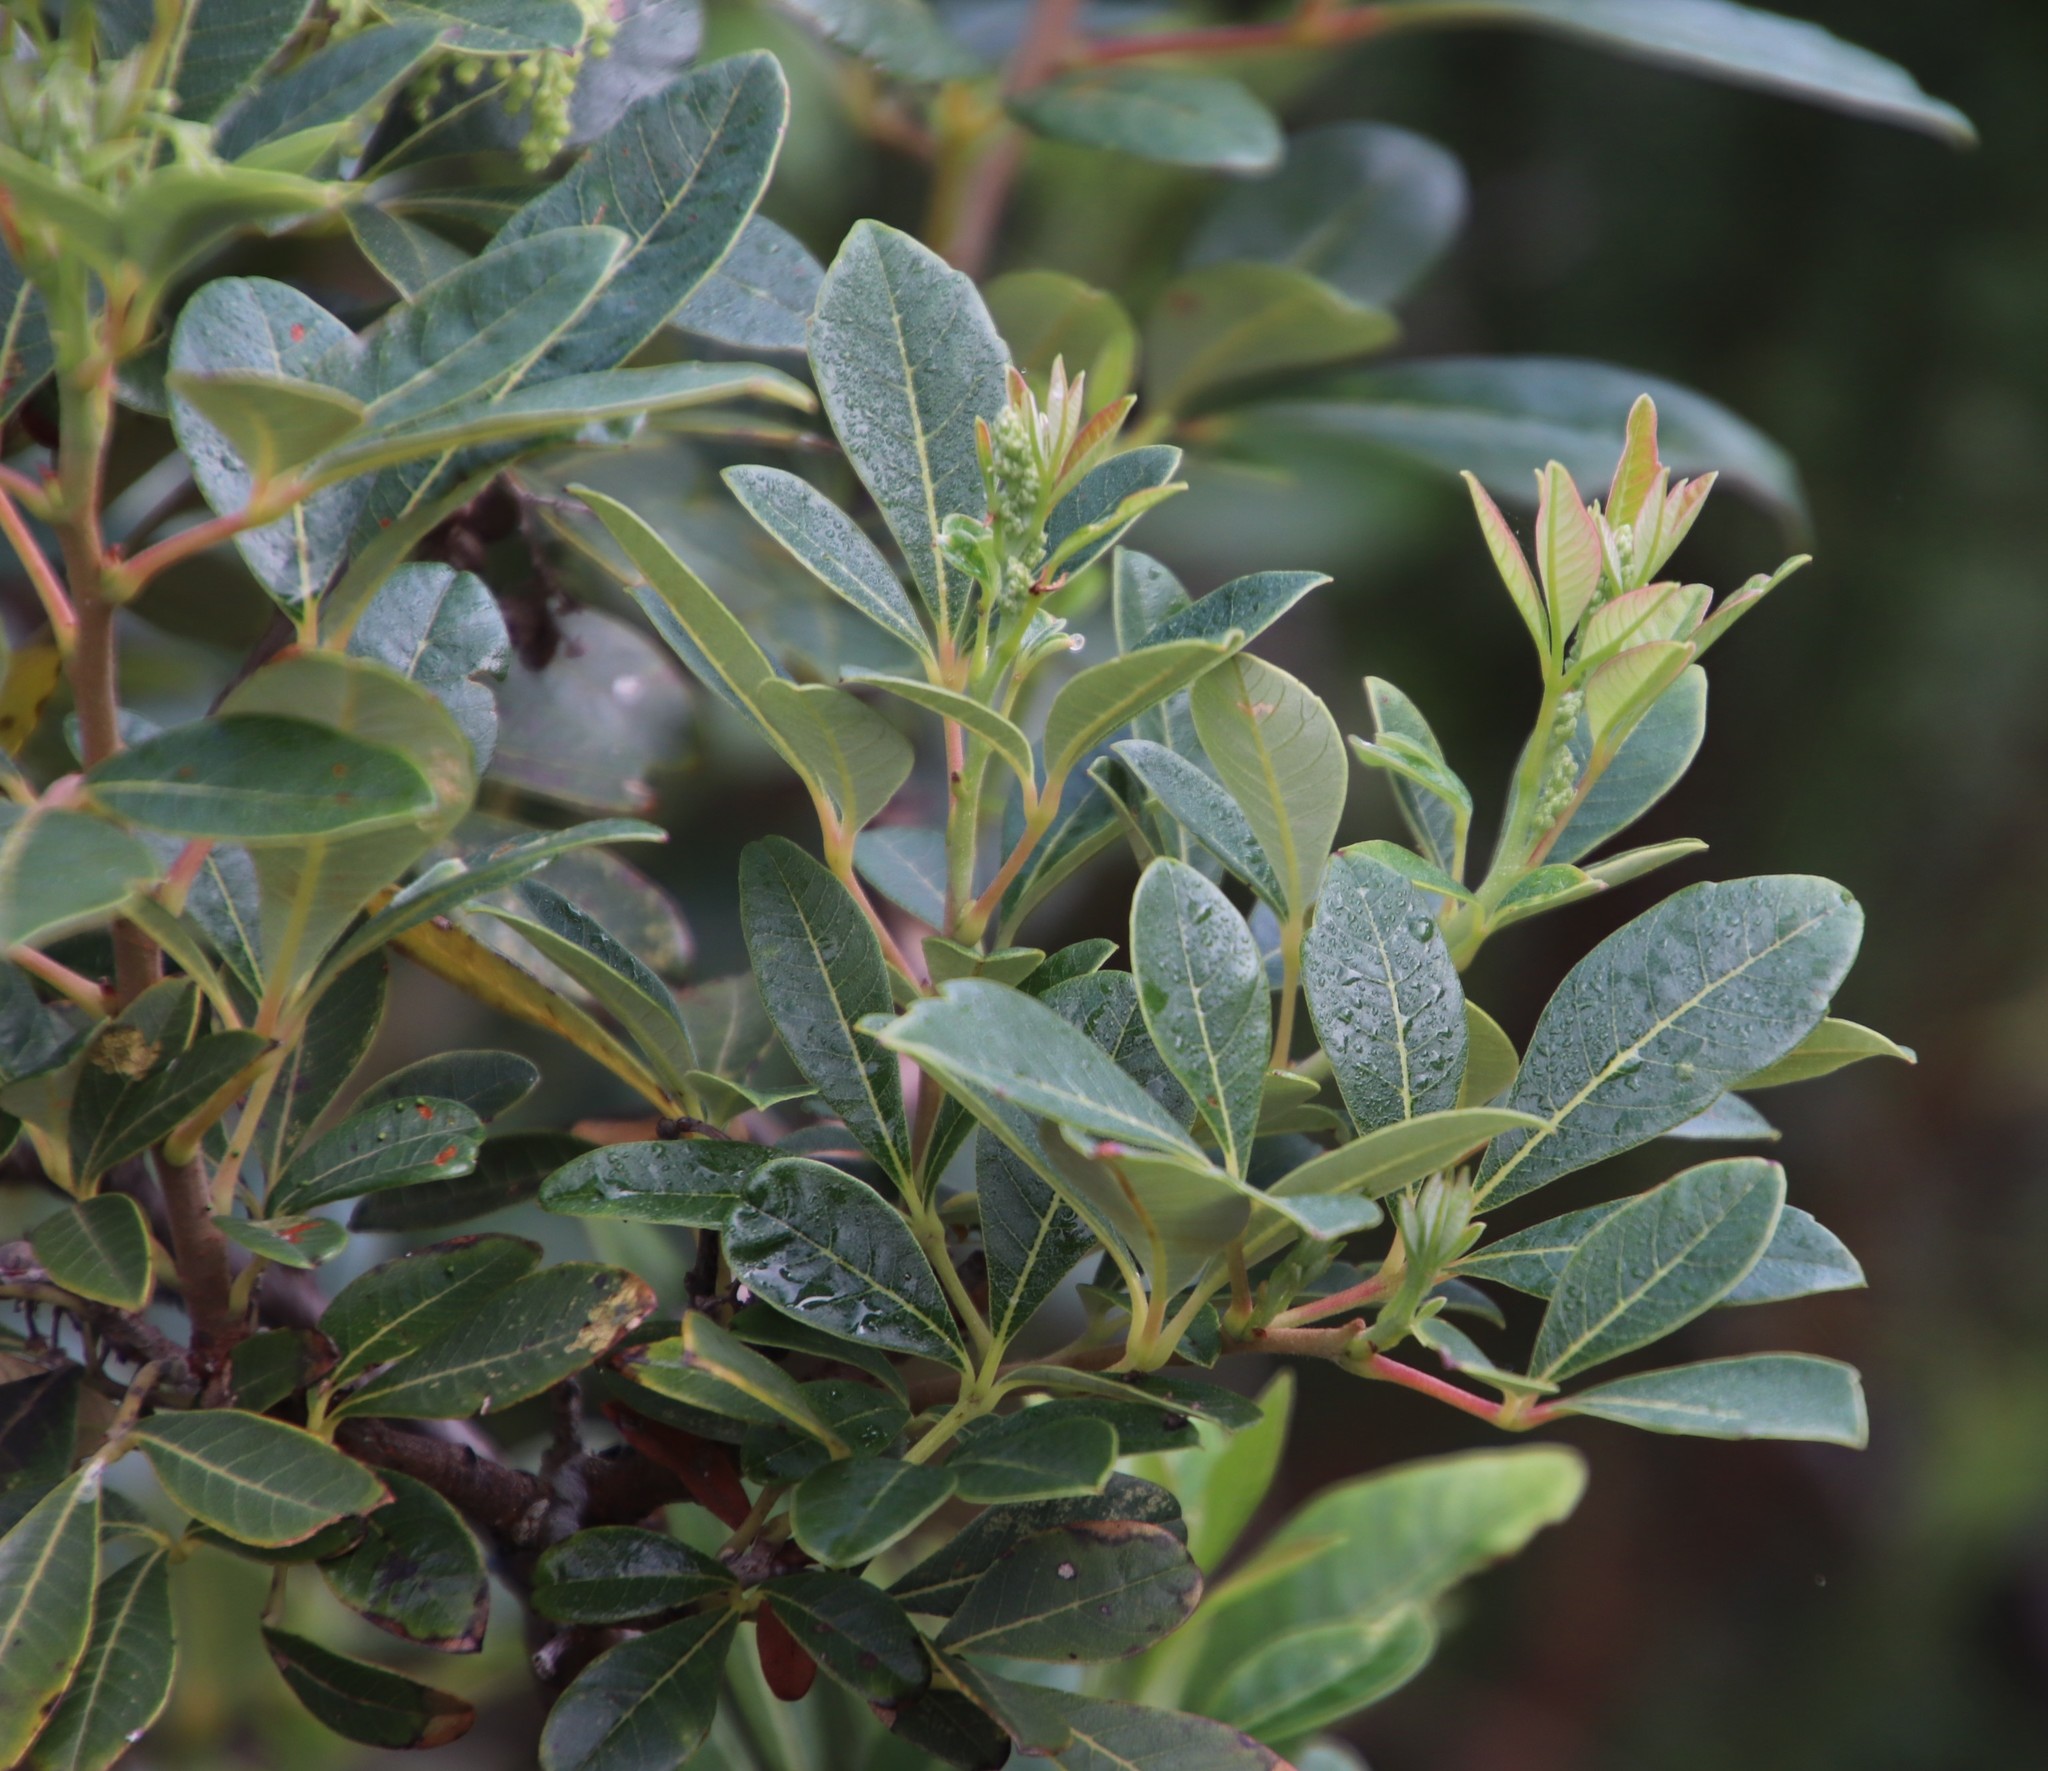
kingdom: Plantae
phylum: Tracheophyta
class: Magnoliopsida
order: Sapindales
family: Anacardiaceae
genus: Searsia
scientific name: Searsia tomentosa
